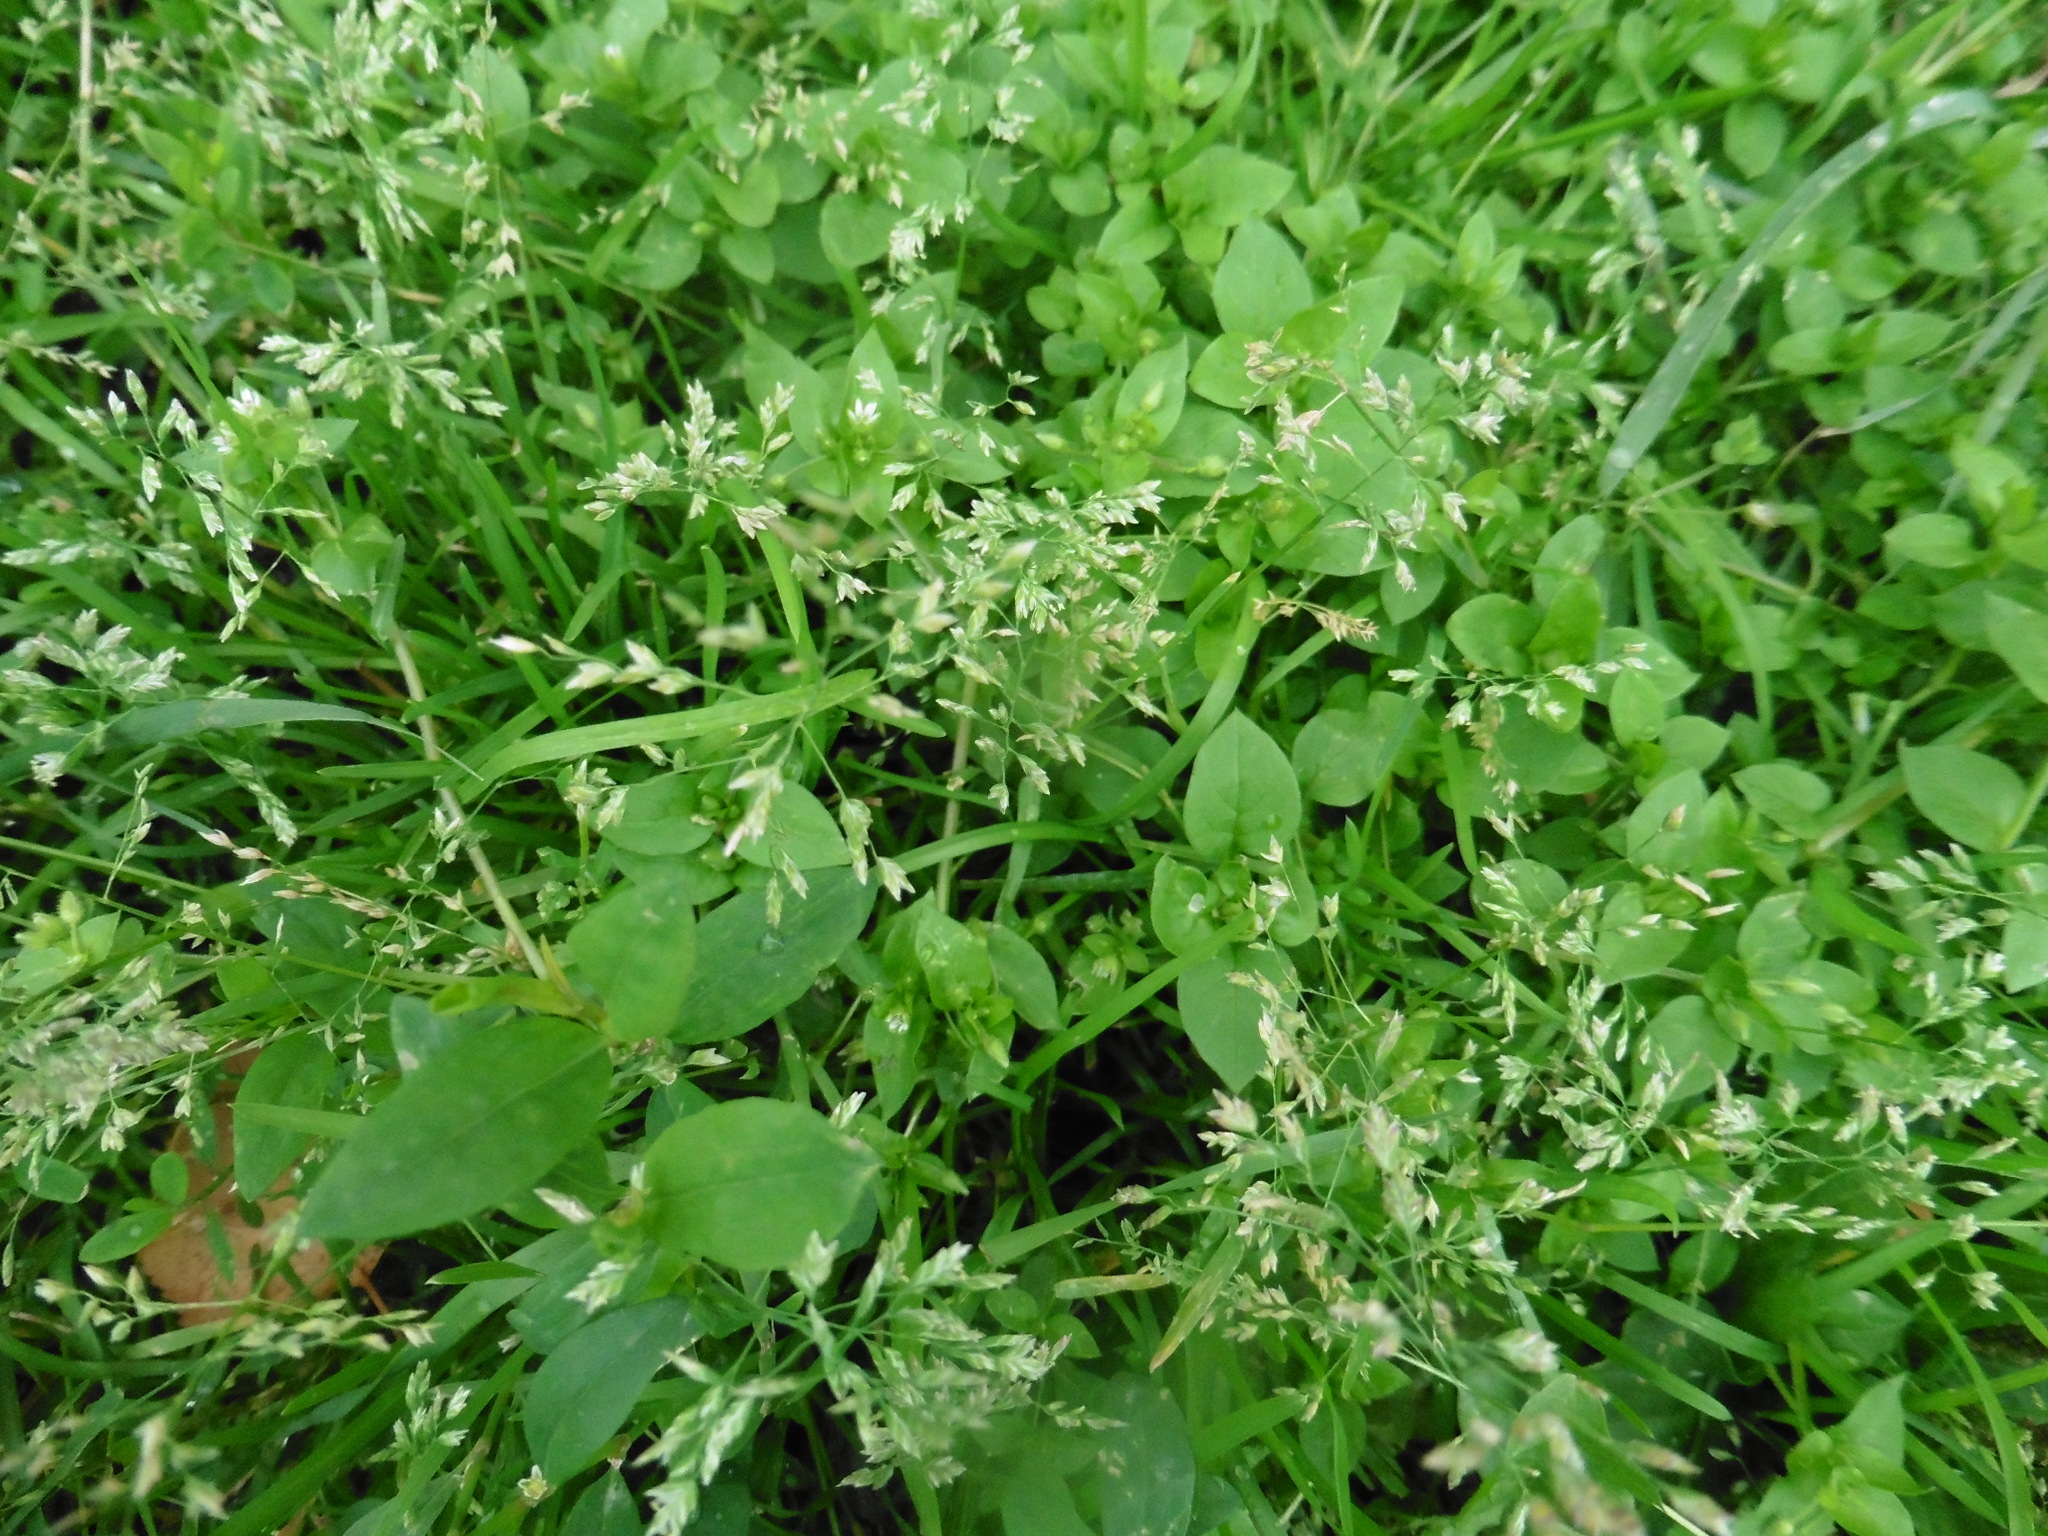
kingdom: Plantae
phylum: Tracheophyta
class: Liliopsida
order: Poales
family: Poaceae
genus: Poa
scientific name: Poa annua
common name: Annual bluegrass
